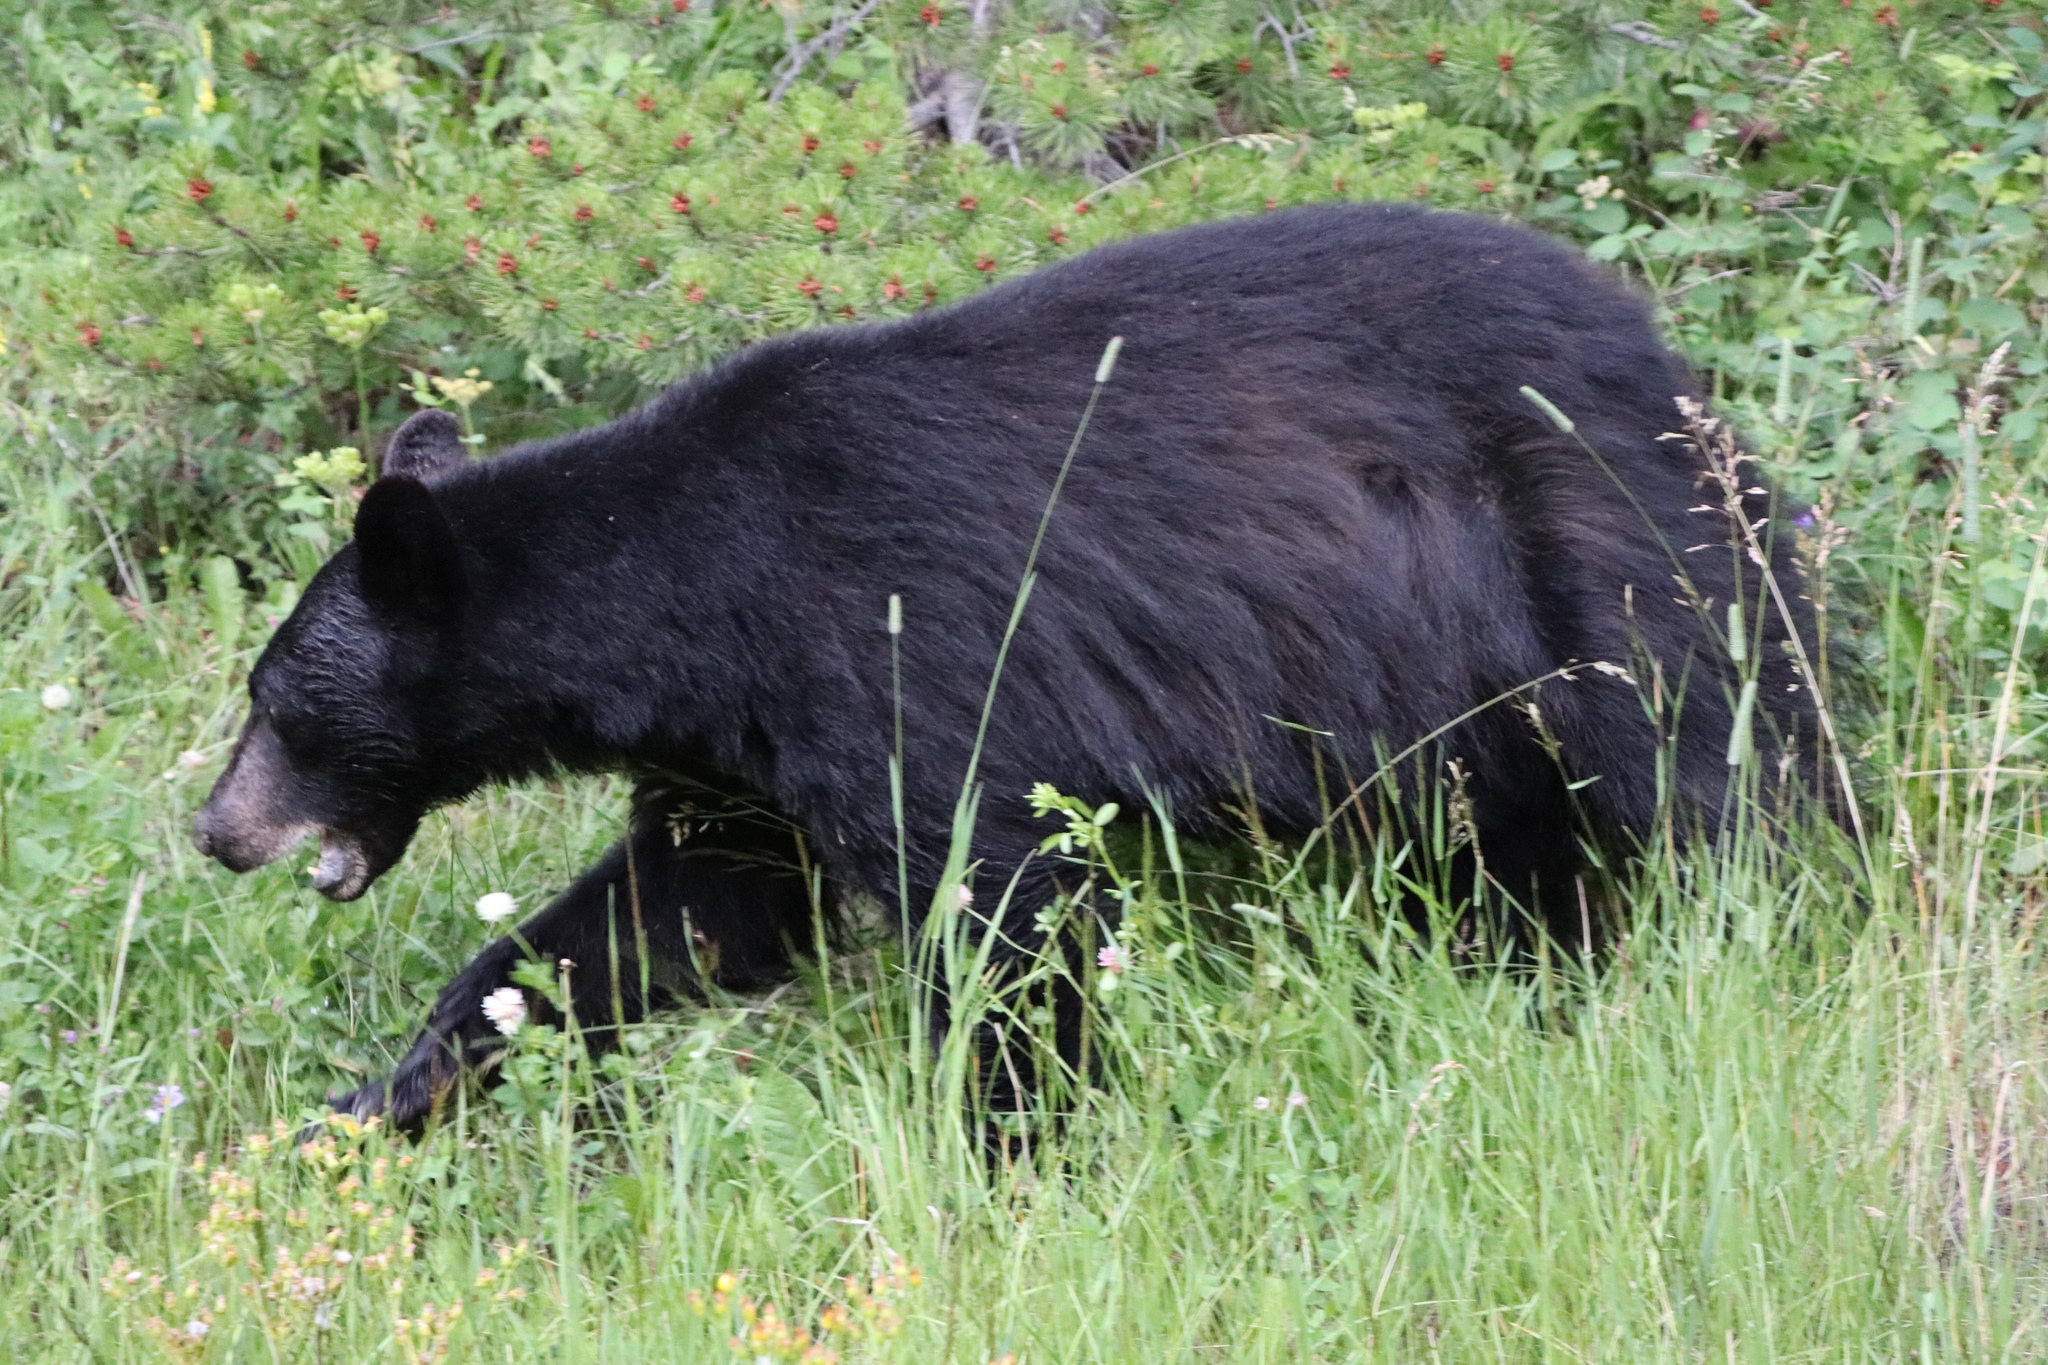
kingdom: Animalia
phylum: Chordata
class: Mammalia
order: Carnivora
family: Ursidae
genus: Ursus
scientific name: Ursus americanus
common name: American black bear
